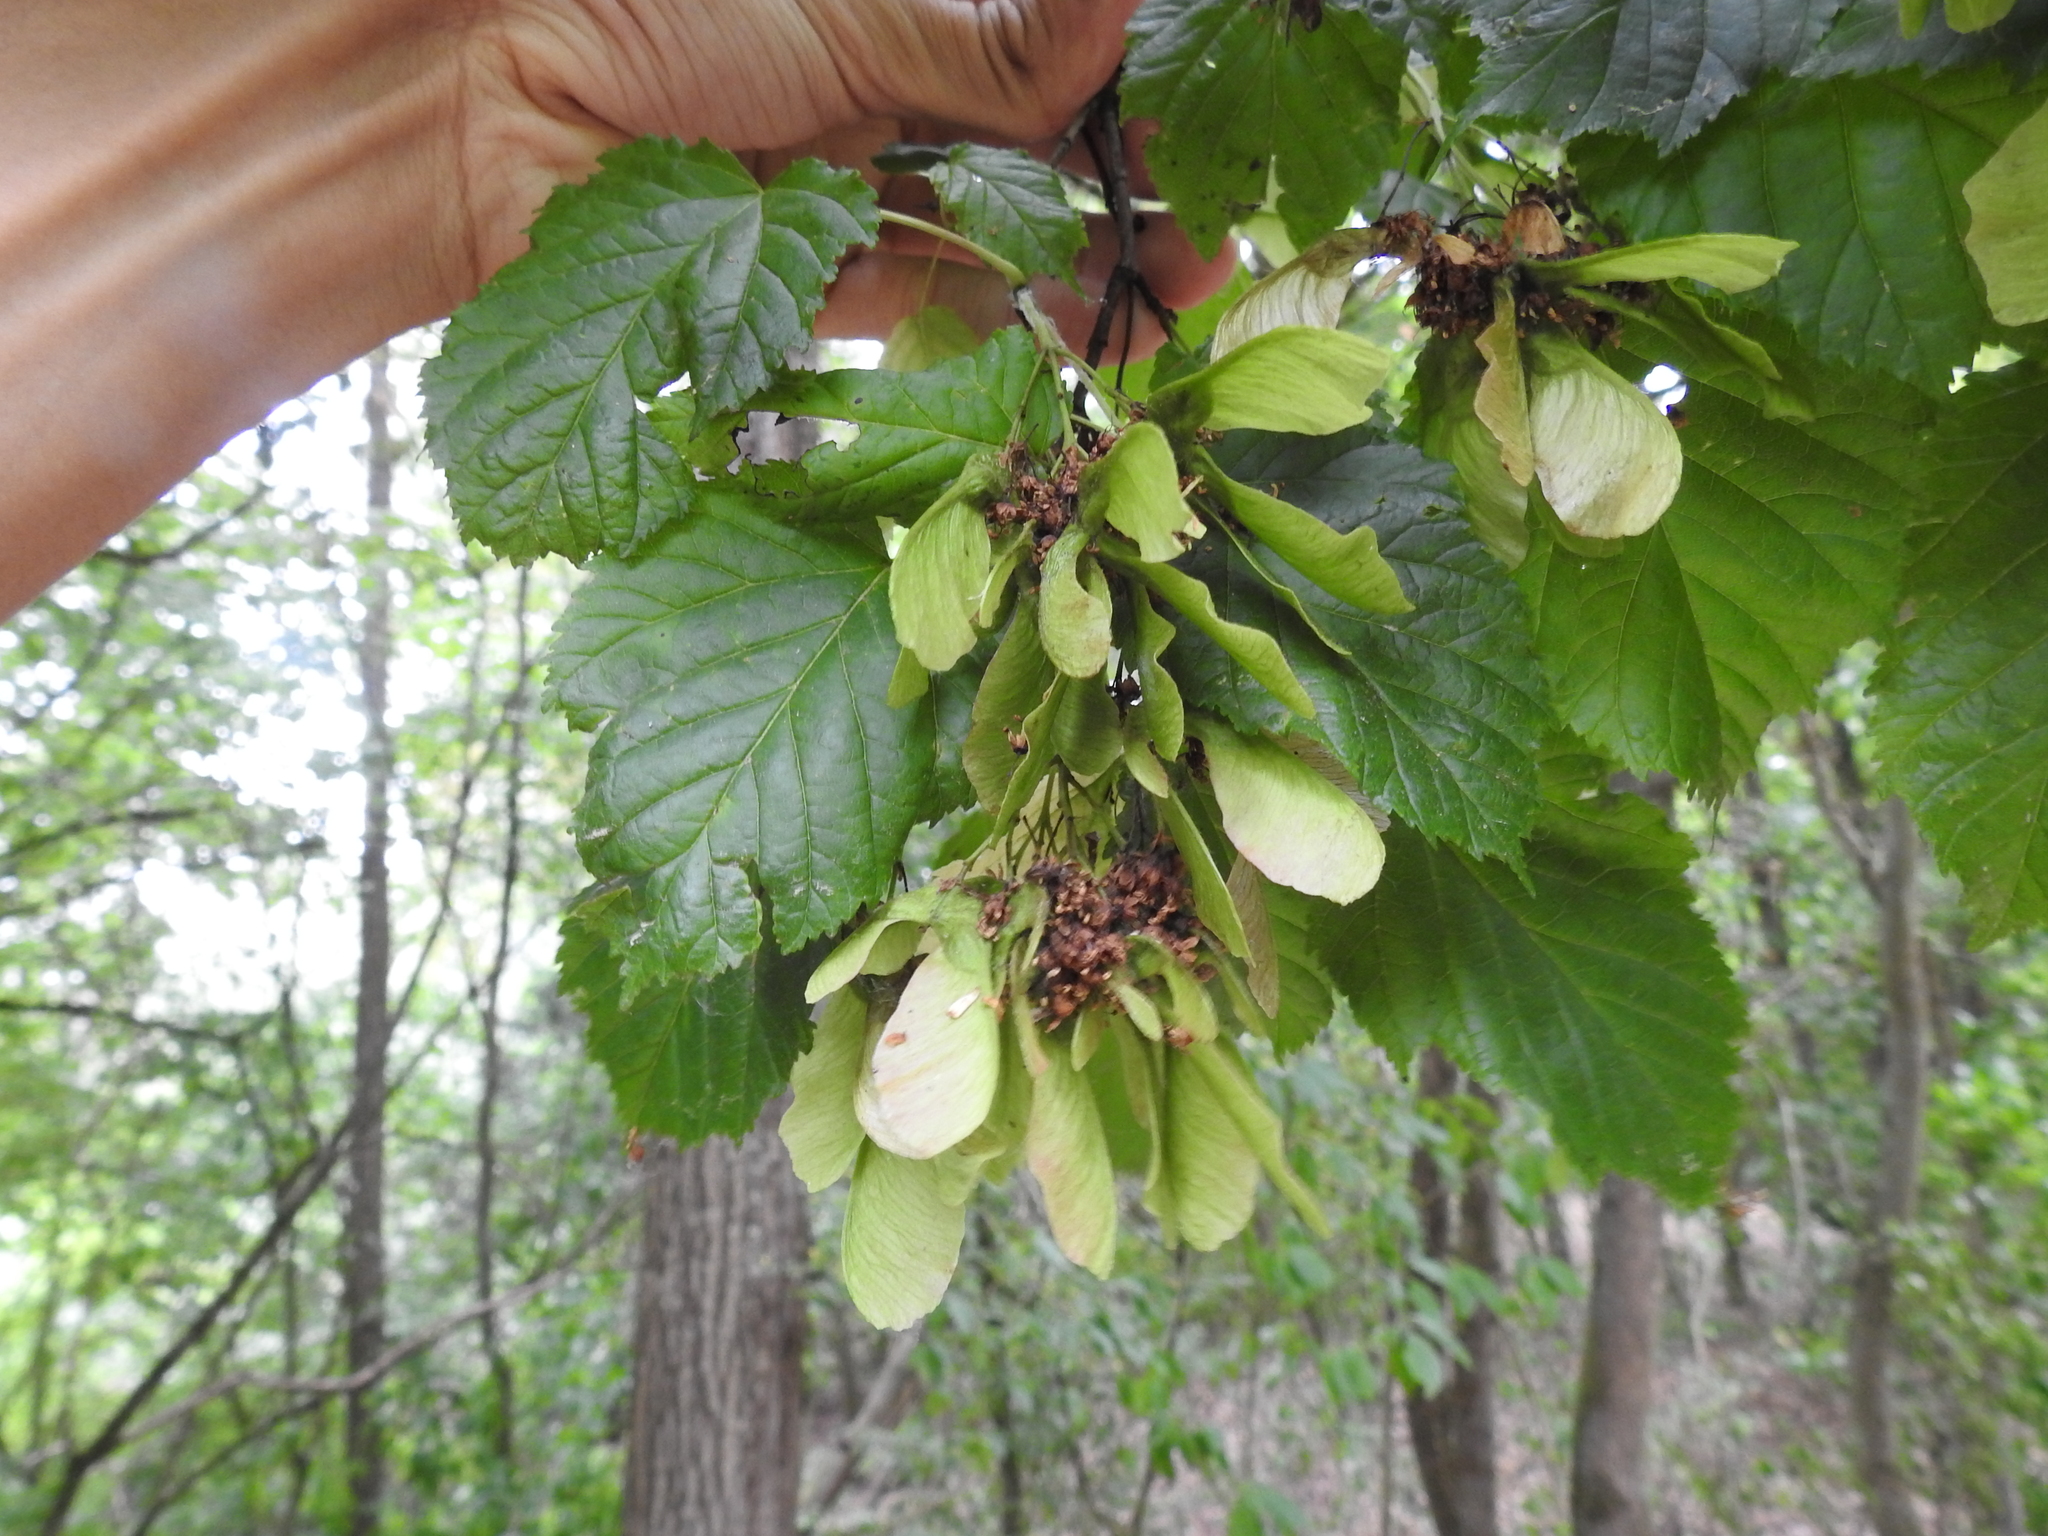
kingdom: Plantae
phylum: Tracheophyta
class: Magnoliopsida
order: Sapindales
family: Sapindaceae
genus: Acer
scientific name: Acer tataricum
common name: Tartar maple
